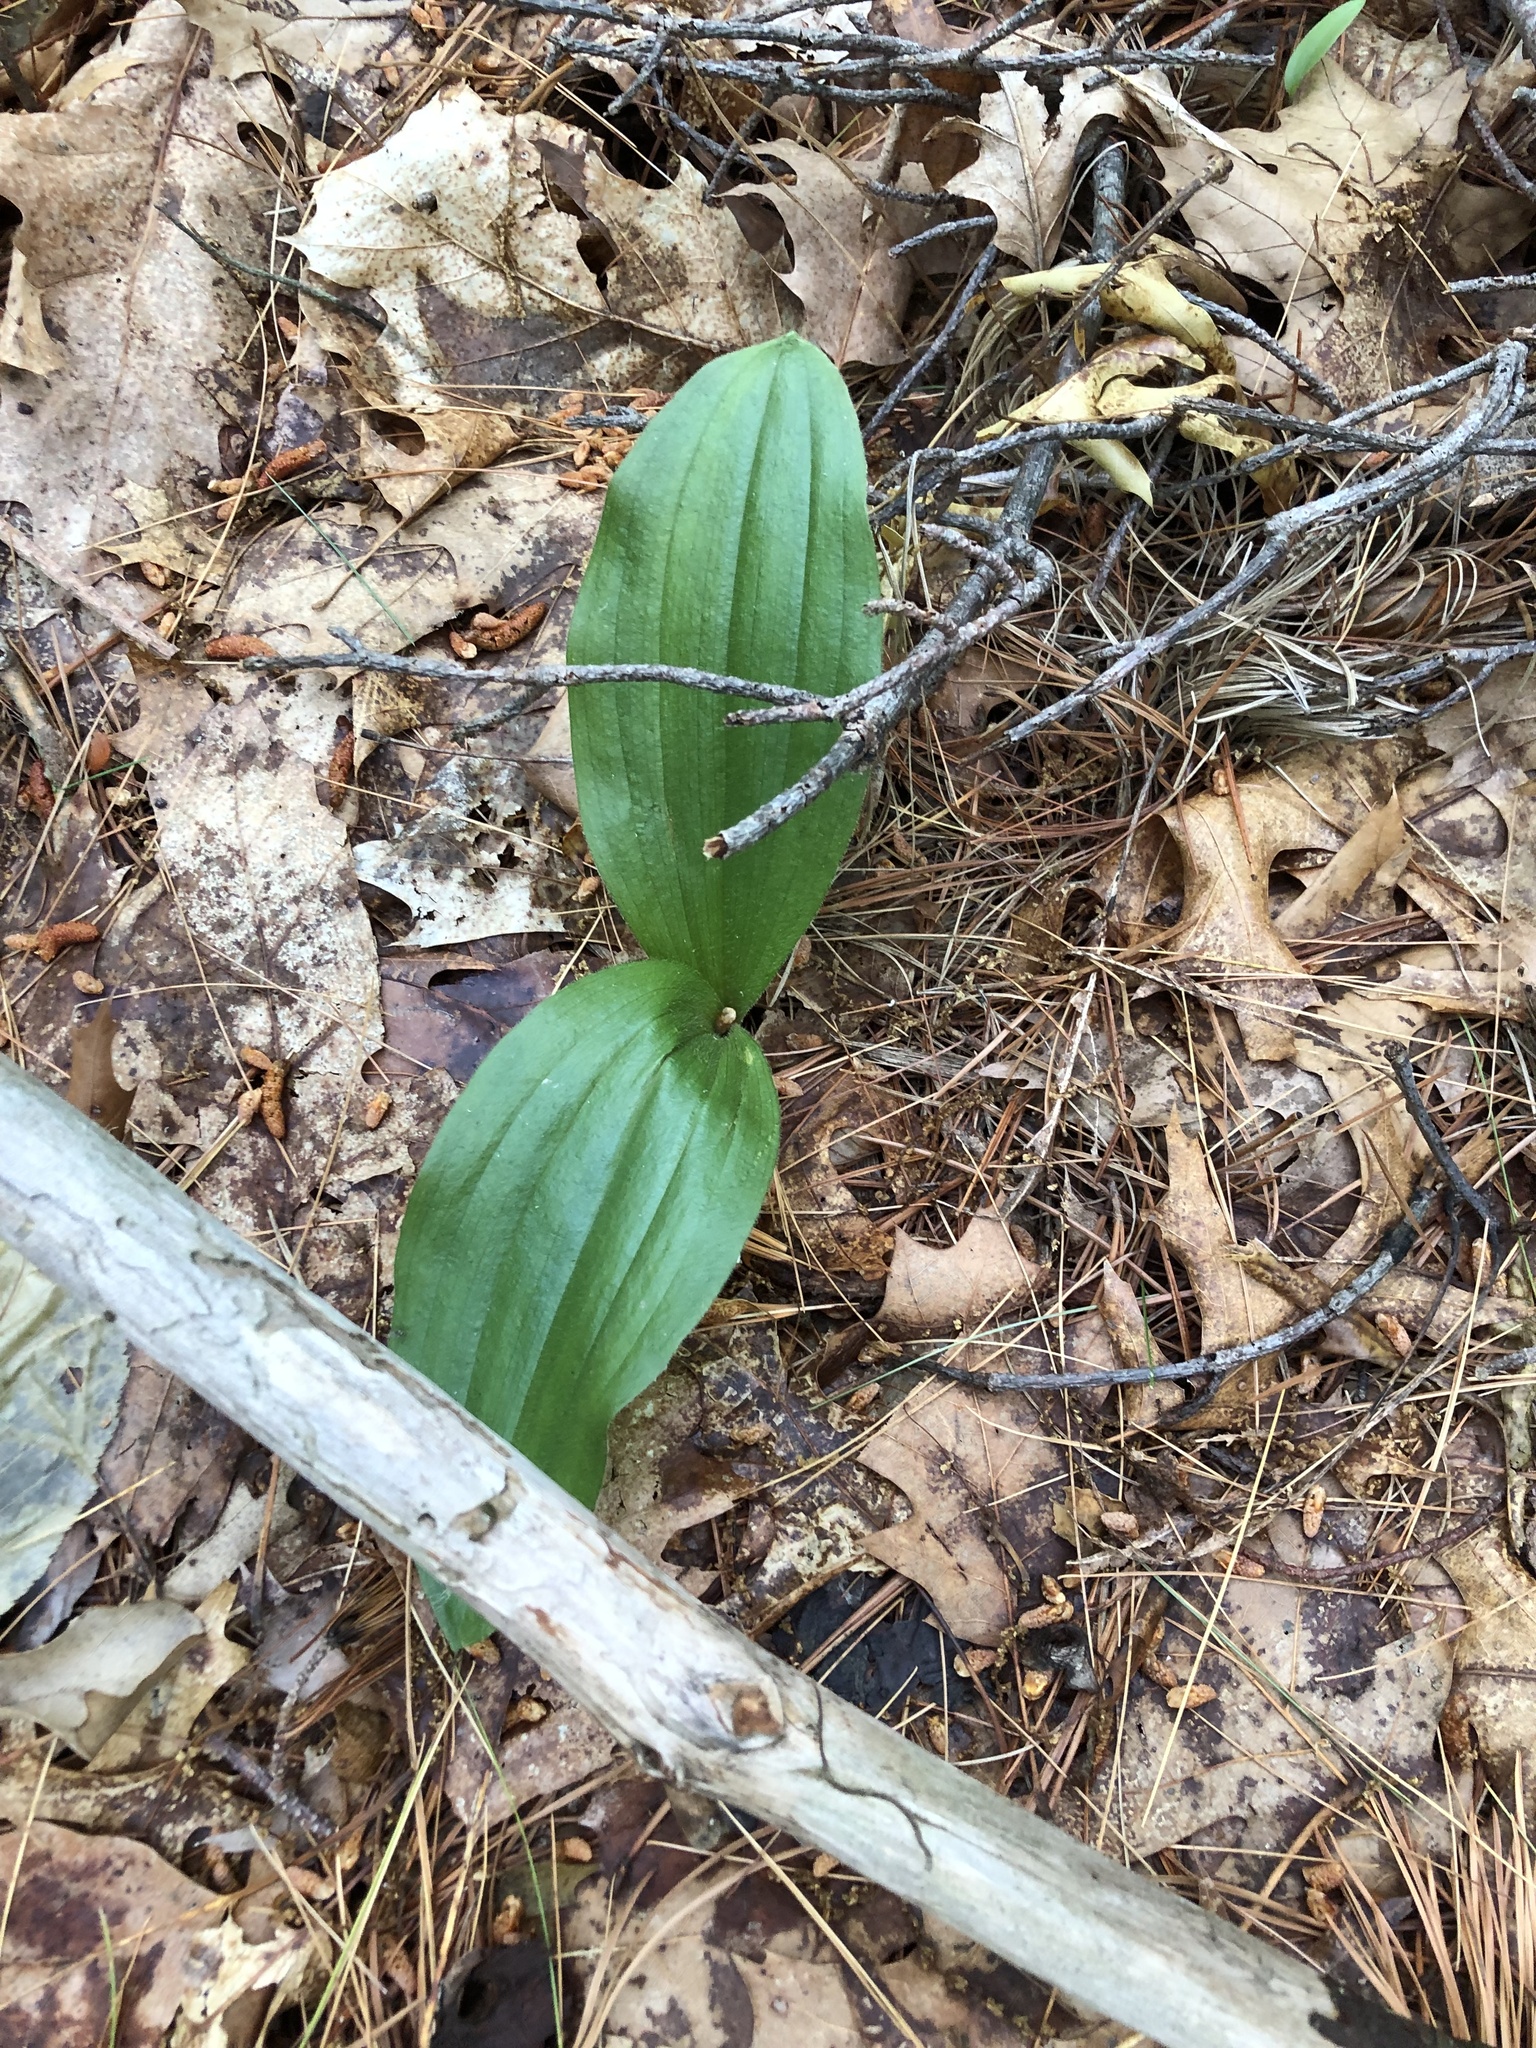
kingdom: Plantae
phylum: Tracheophyta
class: Liliopsida
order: Asparagales
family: Orchidaceae
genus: Cypripedium
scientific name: Cypripedium acaule
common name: Pink lady's-slipper
